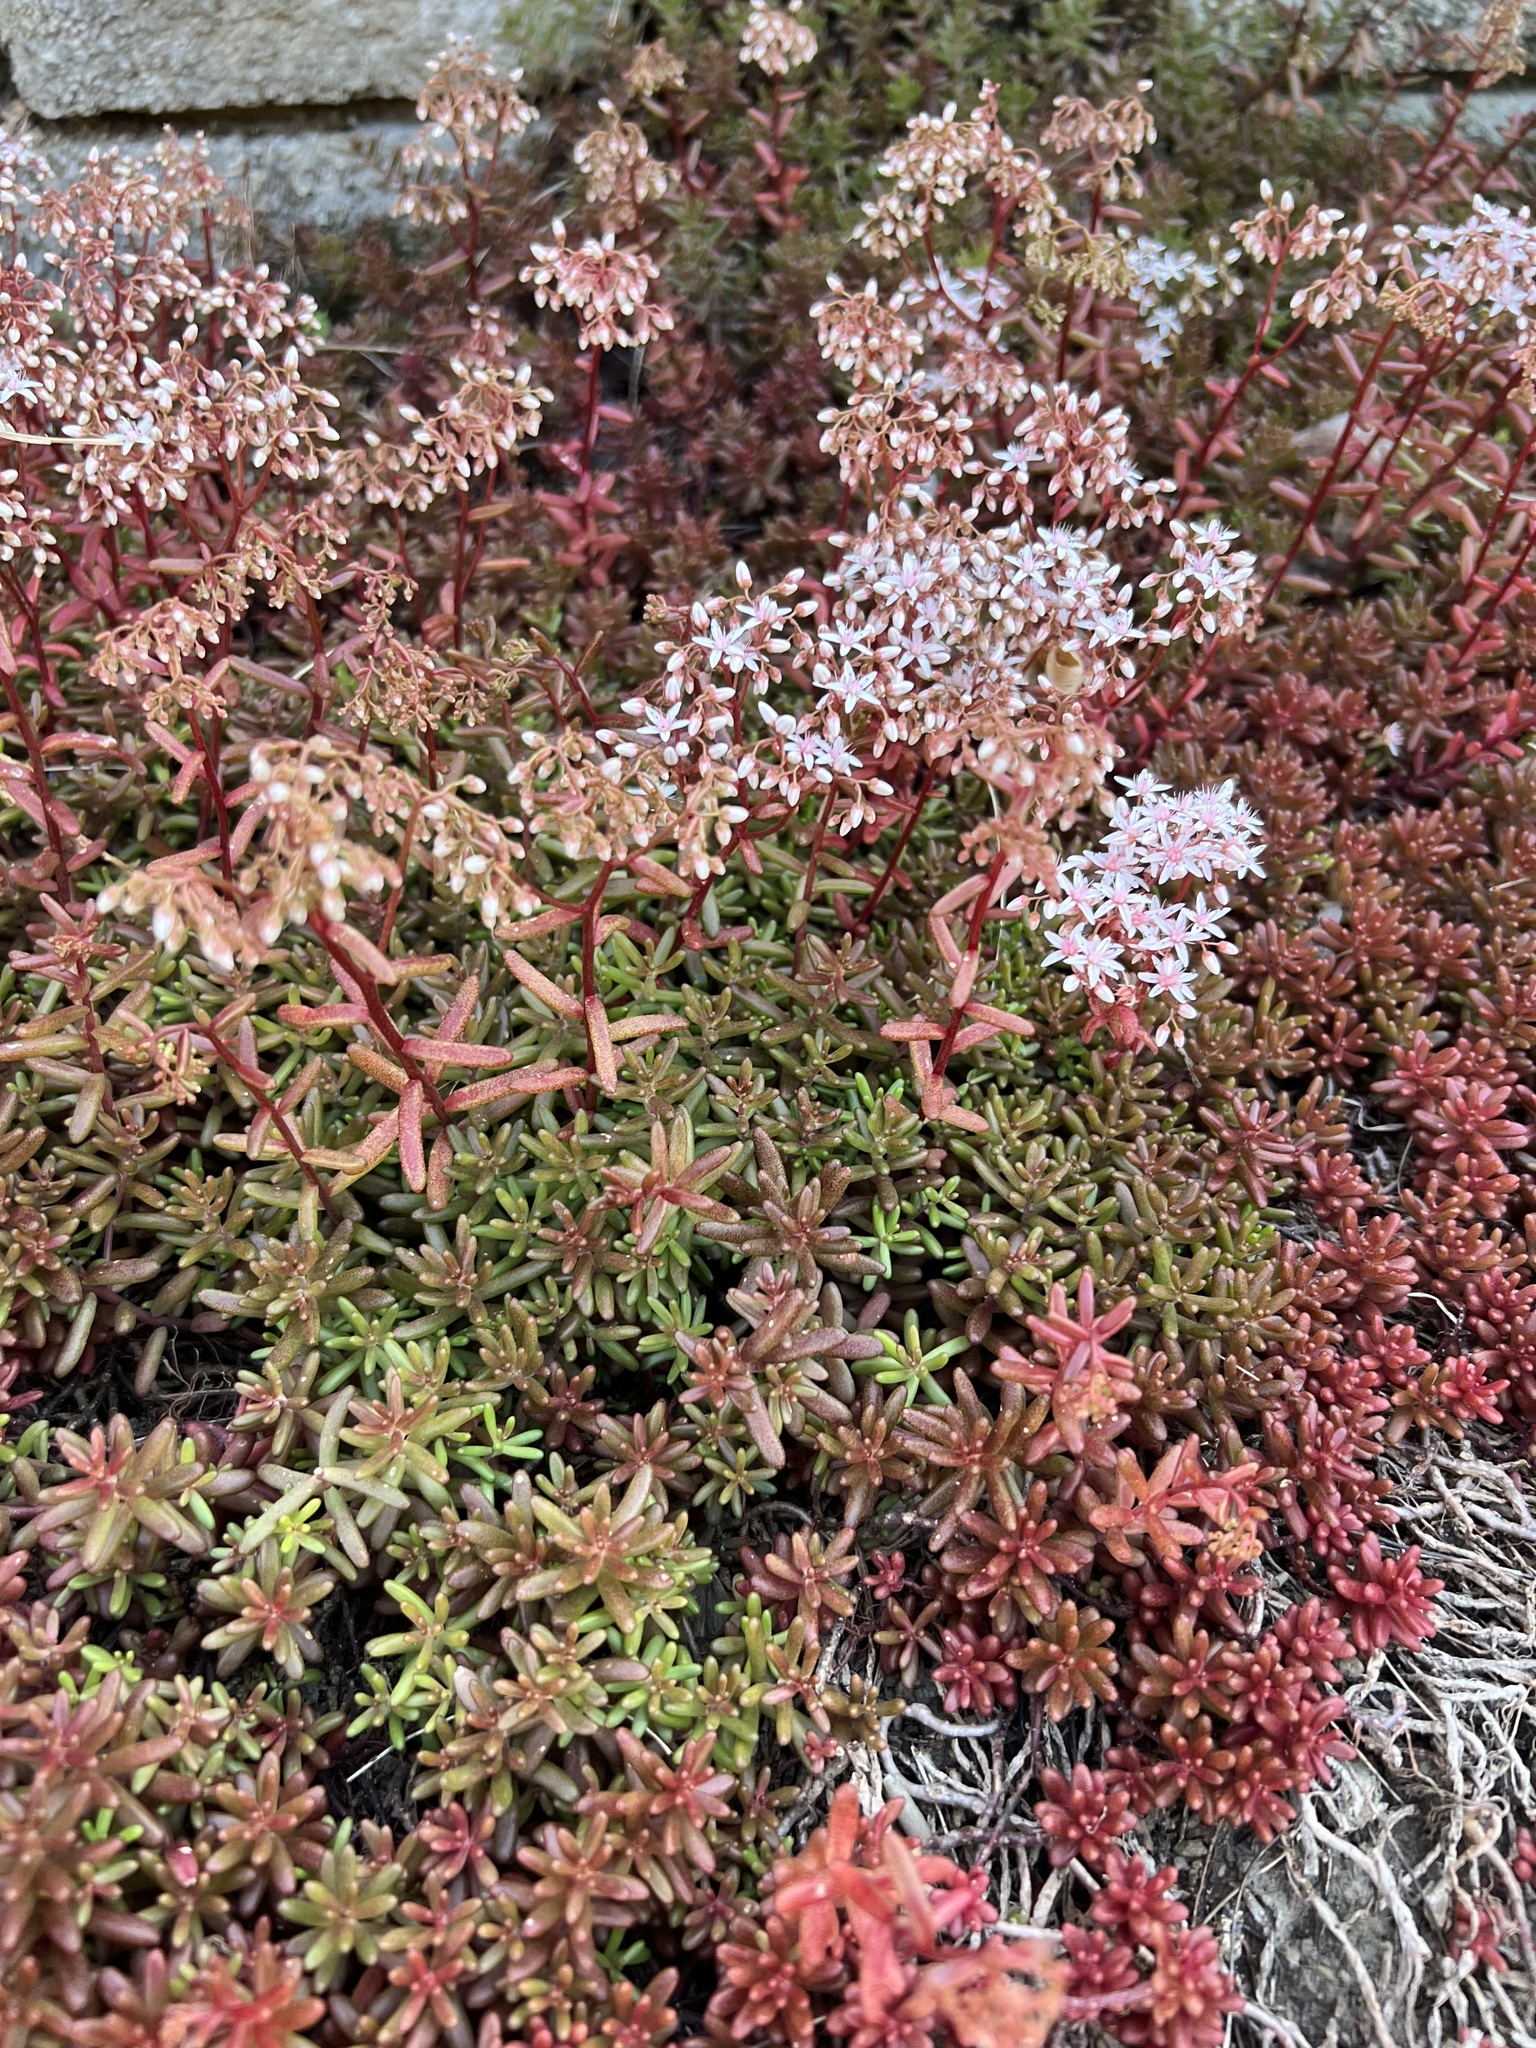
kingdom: Plantae
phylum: Tracheophyta
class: Magnoliopsida
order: Saxifragales
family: Crassulaceae
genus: Sedum
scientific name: Sedum album
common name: White stonecrop
